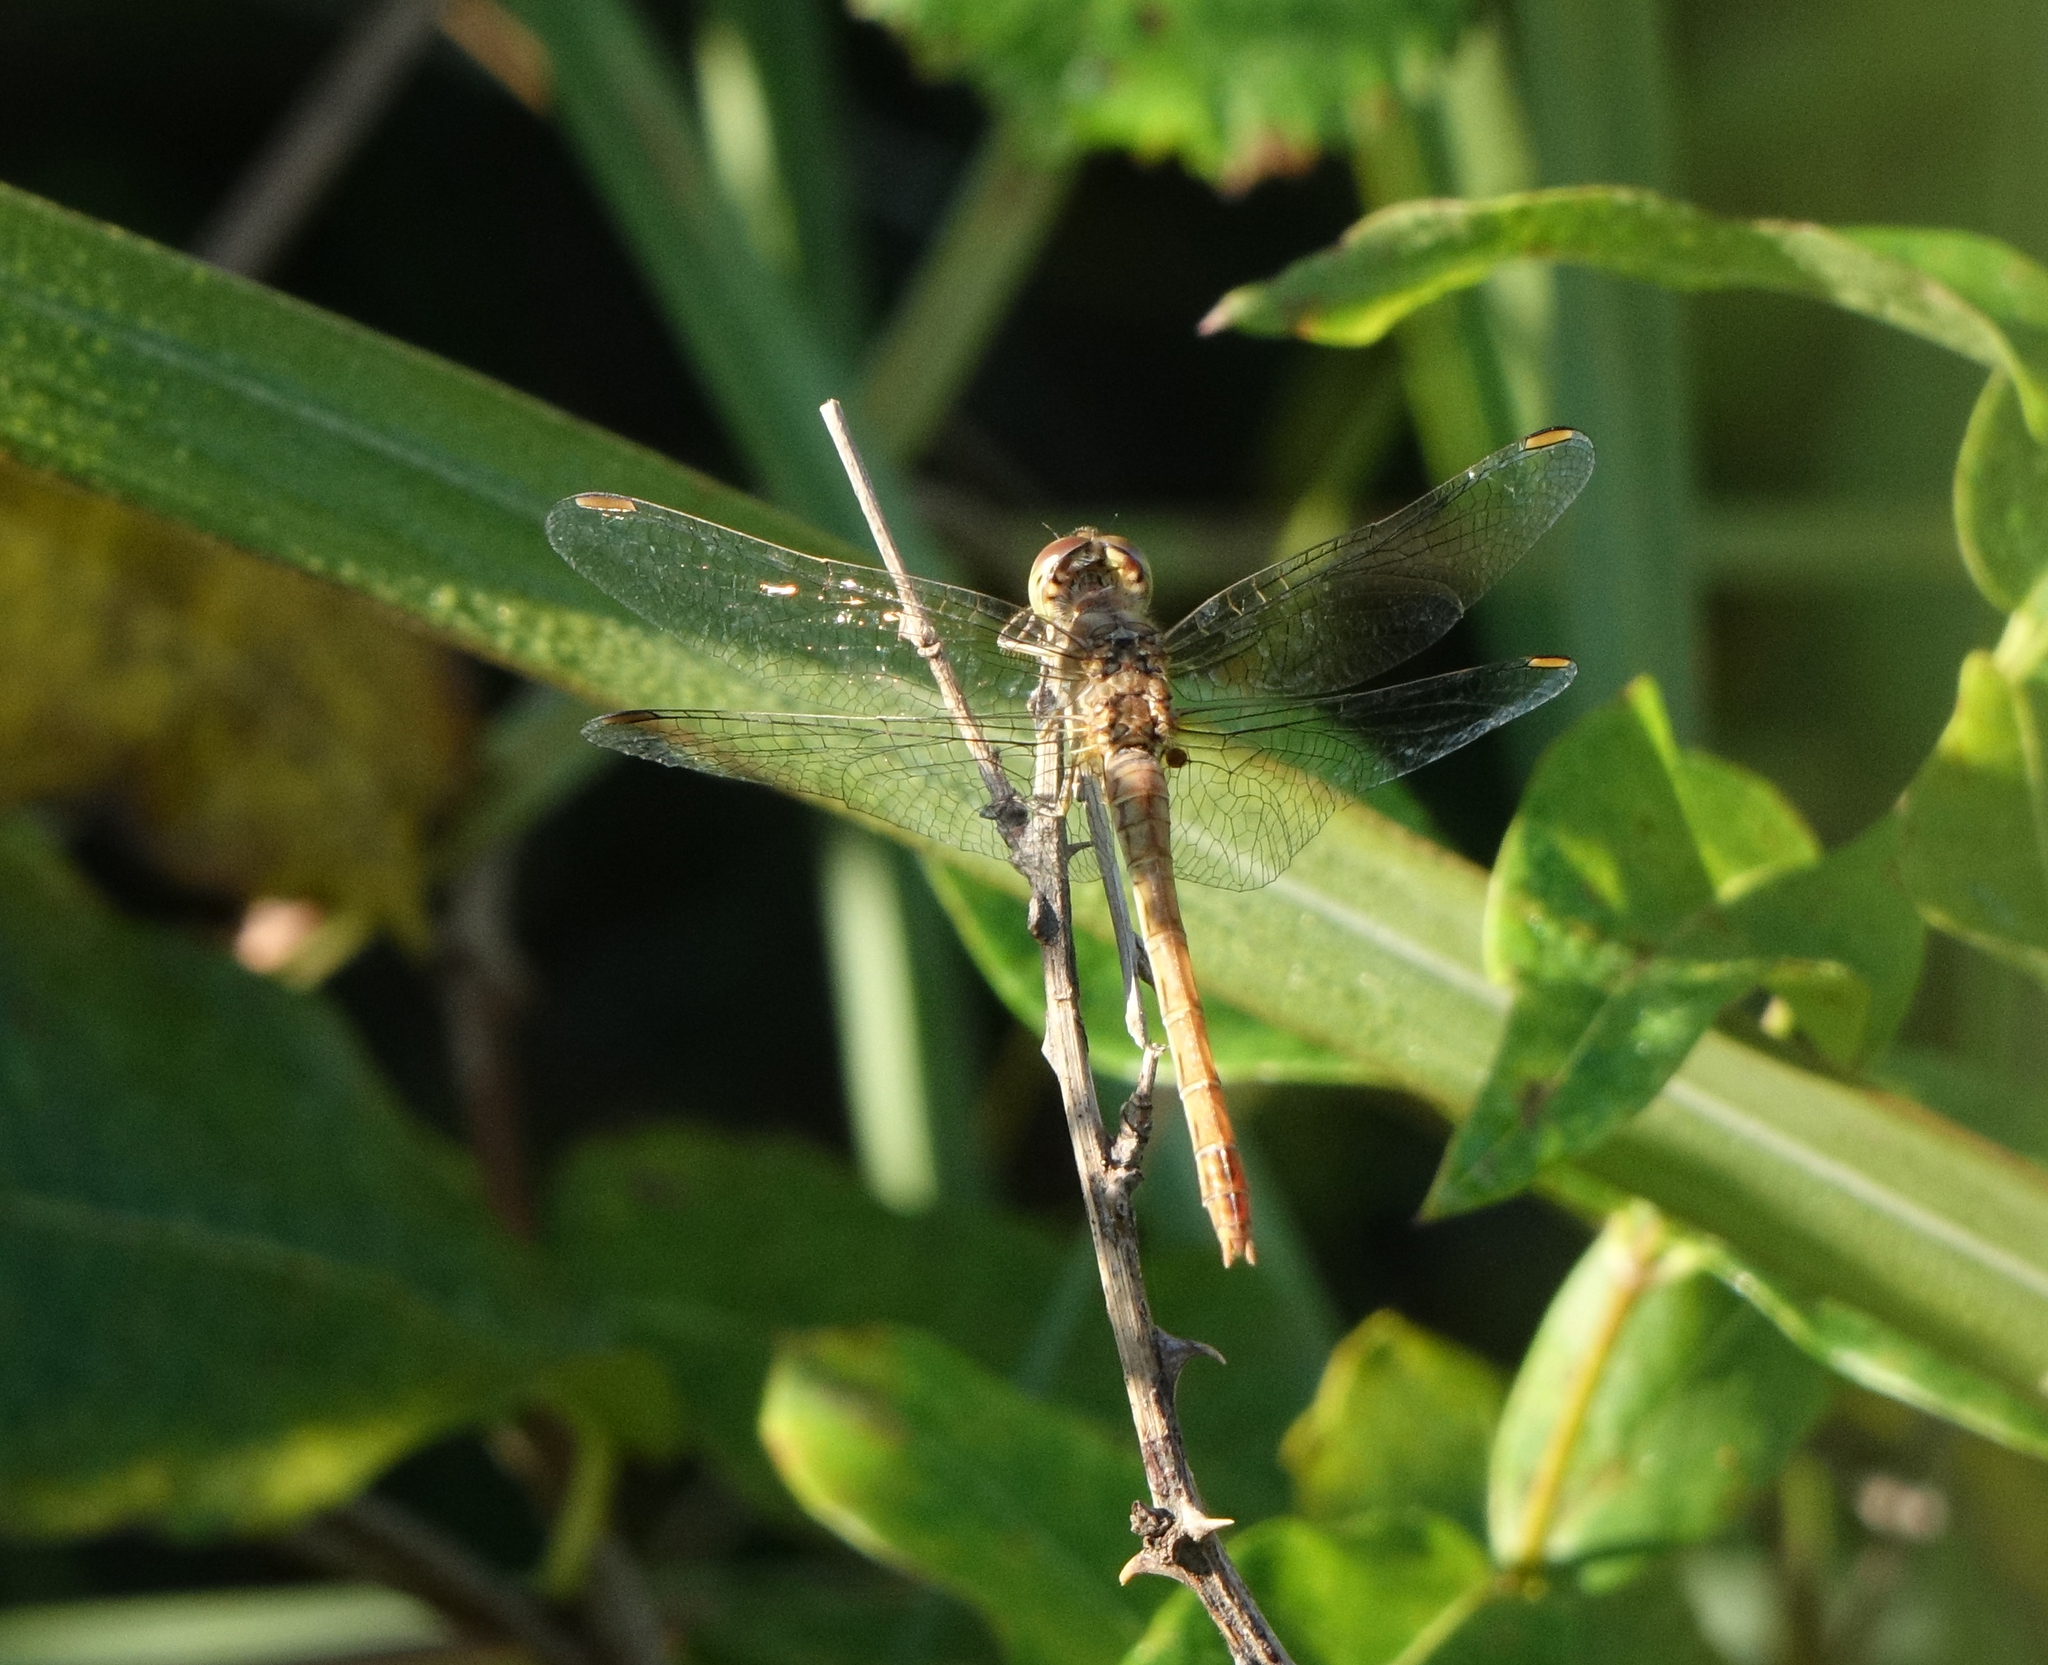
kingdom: Animalia
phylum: Arthropoda
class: Insecta
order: Odonata
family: Libellulidae
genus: Sympetrum
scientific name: Sympetrum meridionale
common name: Southern darter
